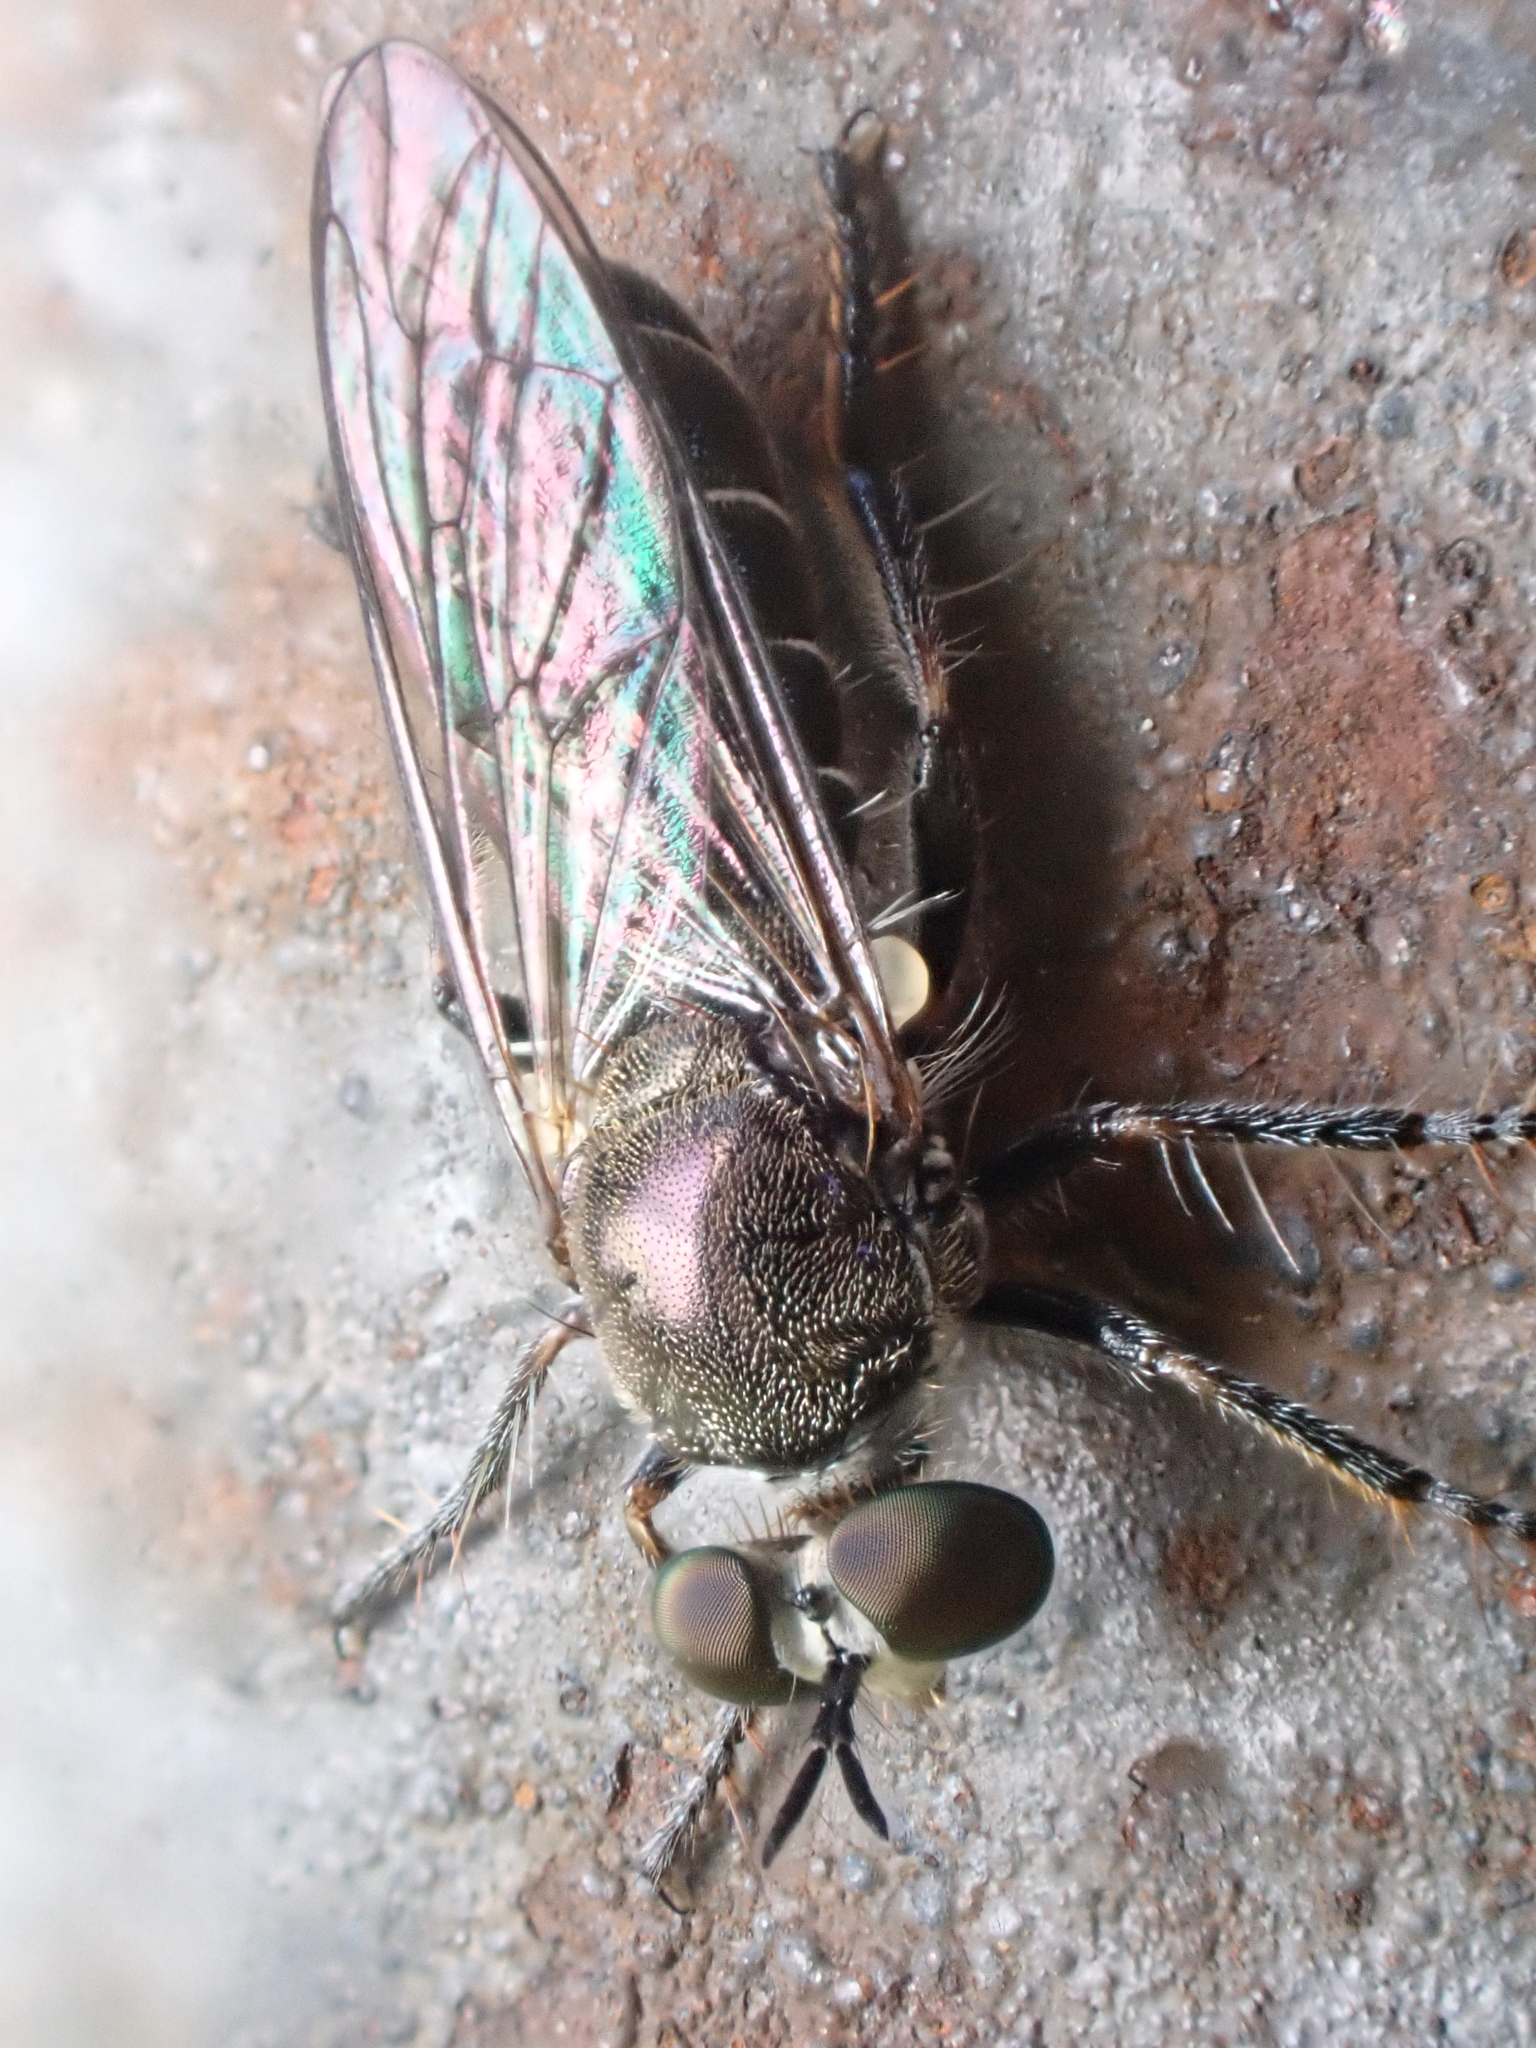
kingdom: Animalia
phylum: Arthropoda
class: Insecta
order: Diptera
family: Asilidae
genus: Atomosia
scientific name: Atomosia puella
